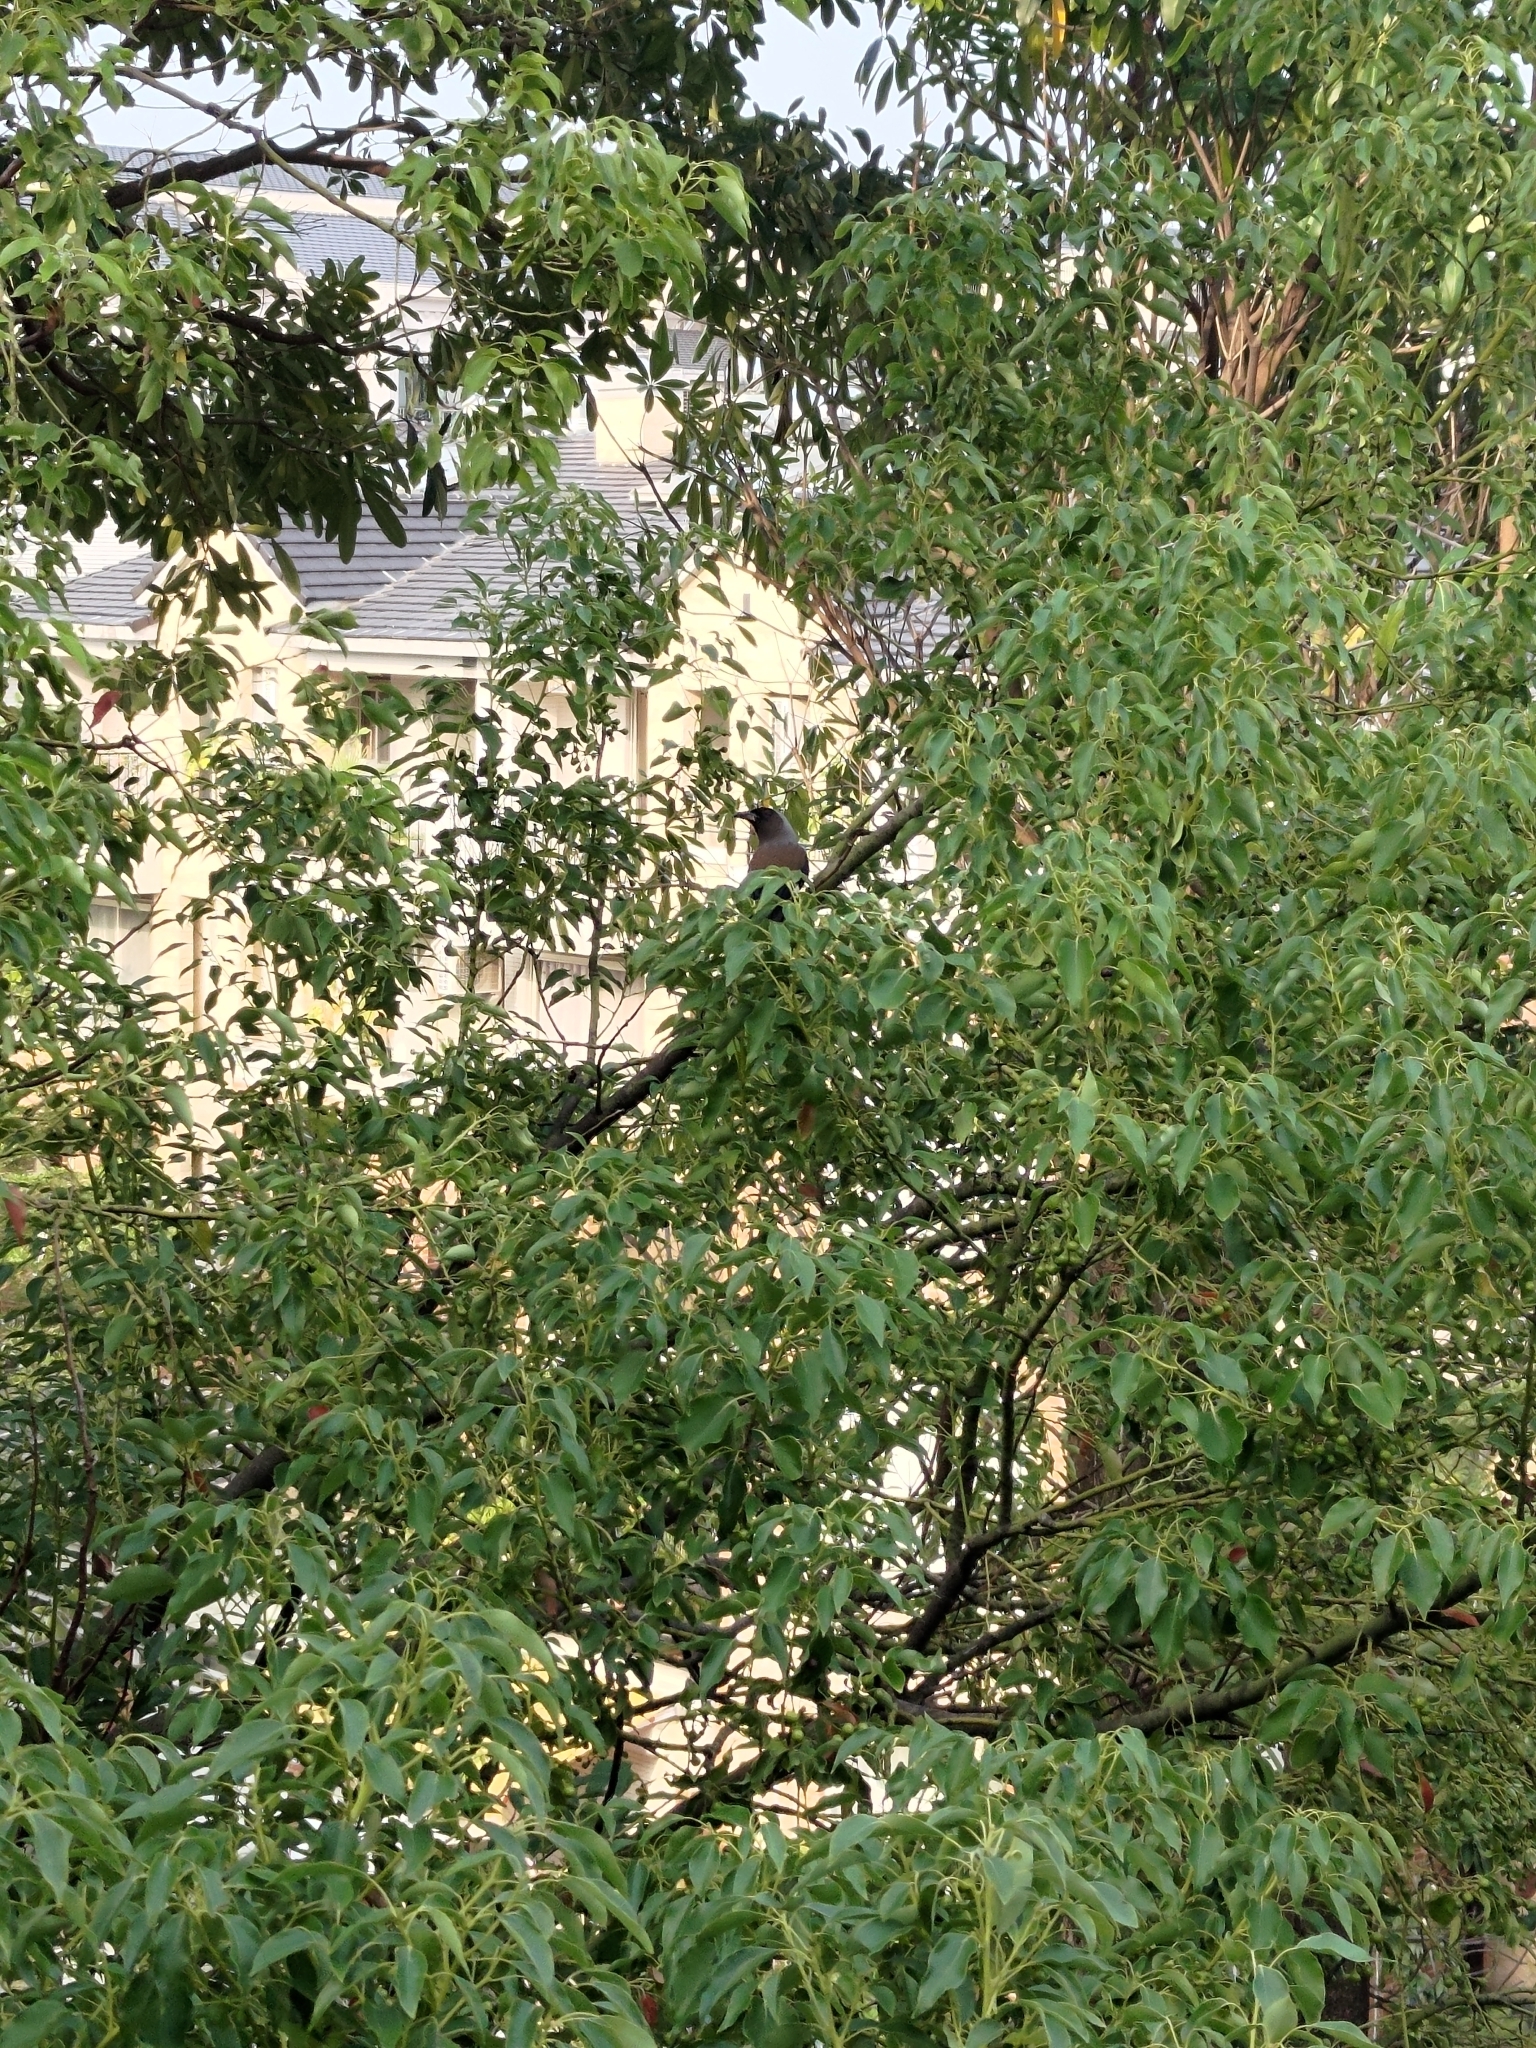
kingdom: Animalia
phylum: Chordata
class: Aves
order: Passeriformes
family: Corvidae
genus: Dendrocitta
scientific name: Dendrocitta formosae
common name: Grey treepie
